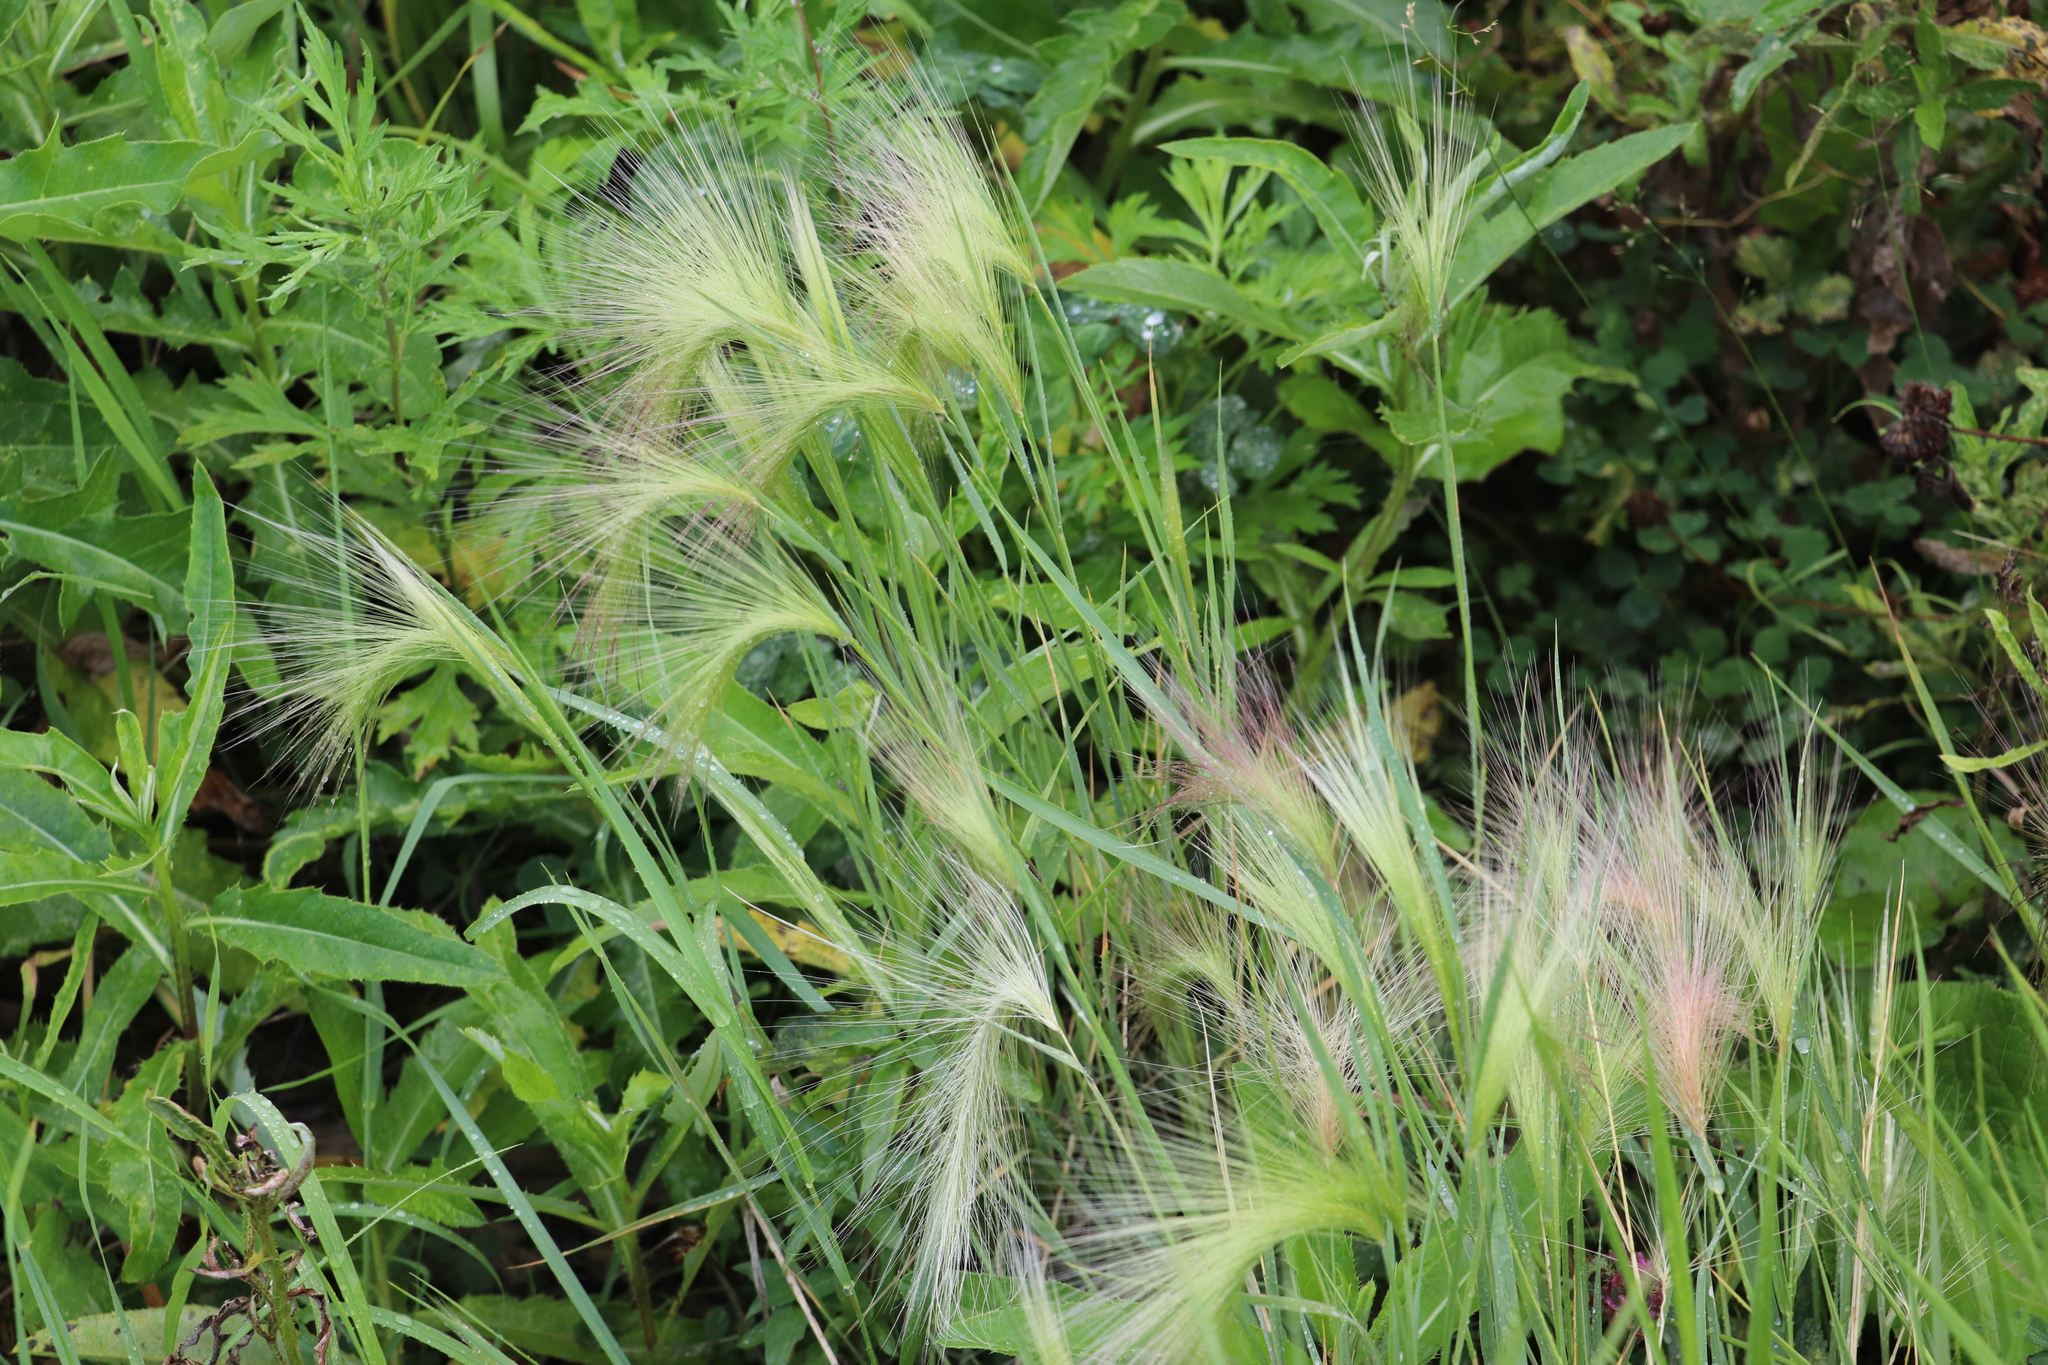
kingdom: Plantae
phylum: Tracheophyta
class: Liliopsida
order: Poales
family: Poaceae
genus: Hordeum
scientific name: Hordeum jubatum
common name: Foxtail barley
